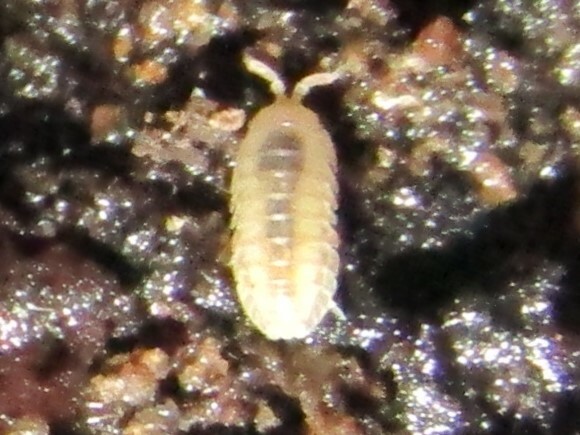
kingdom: Animalia
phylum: Arthropoda
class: Malacostraca
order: Isopoda
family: Armadillidiidae
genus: Armadillidium
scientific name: Armadillidium nasatum
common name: Isopod
